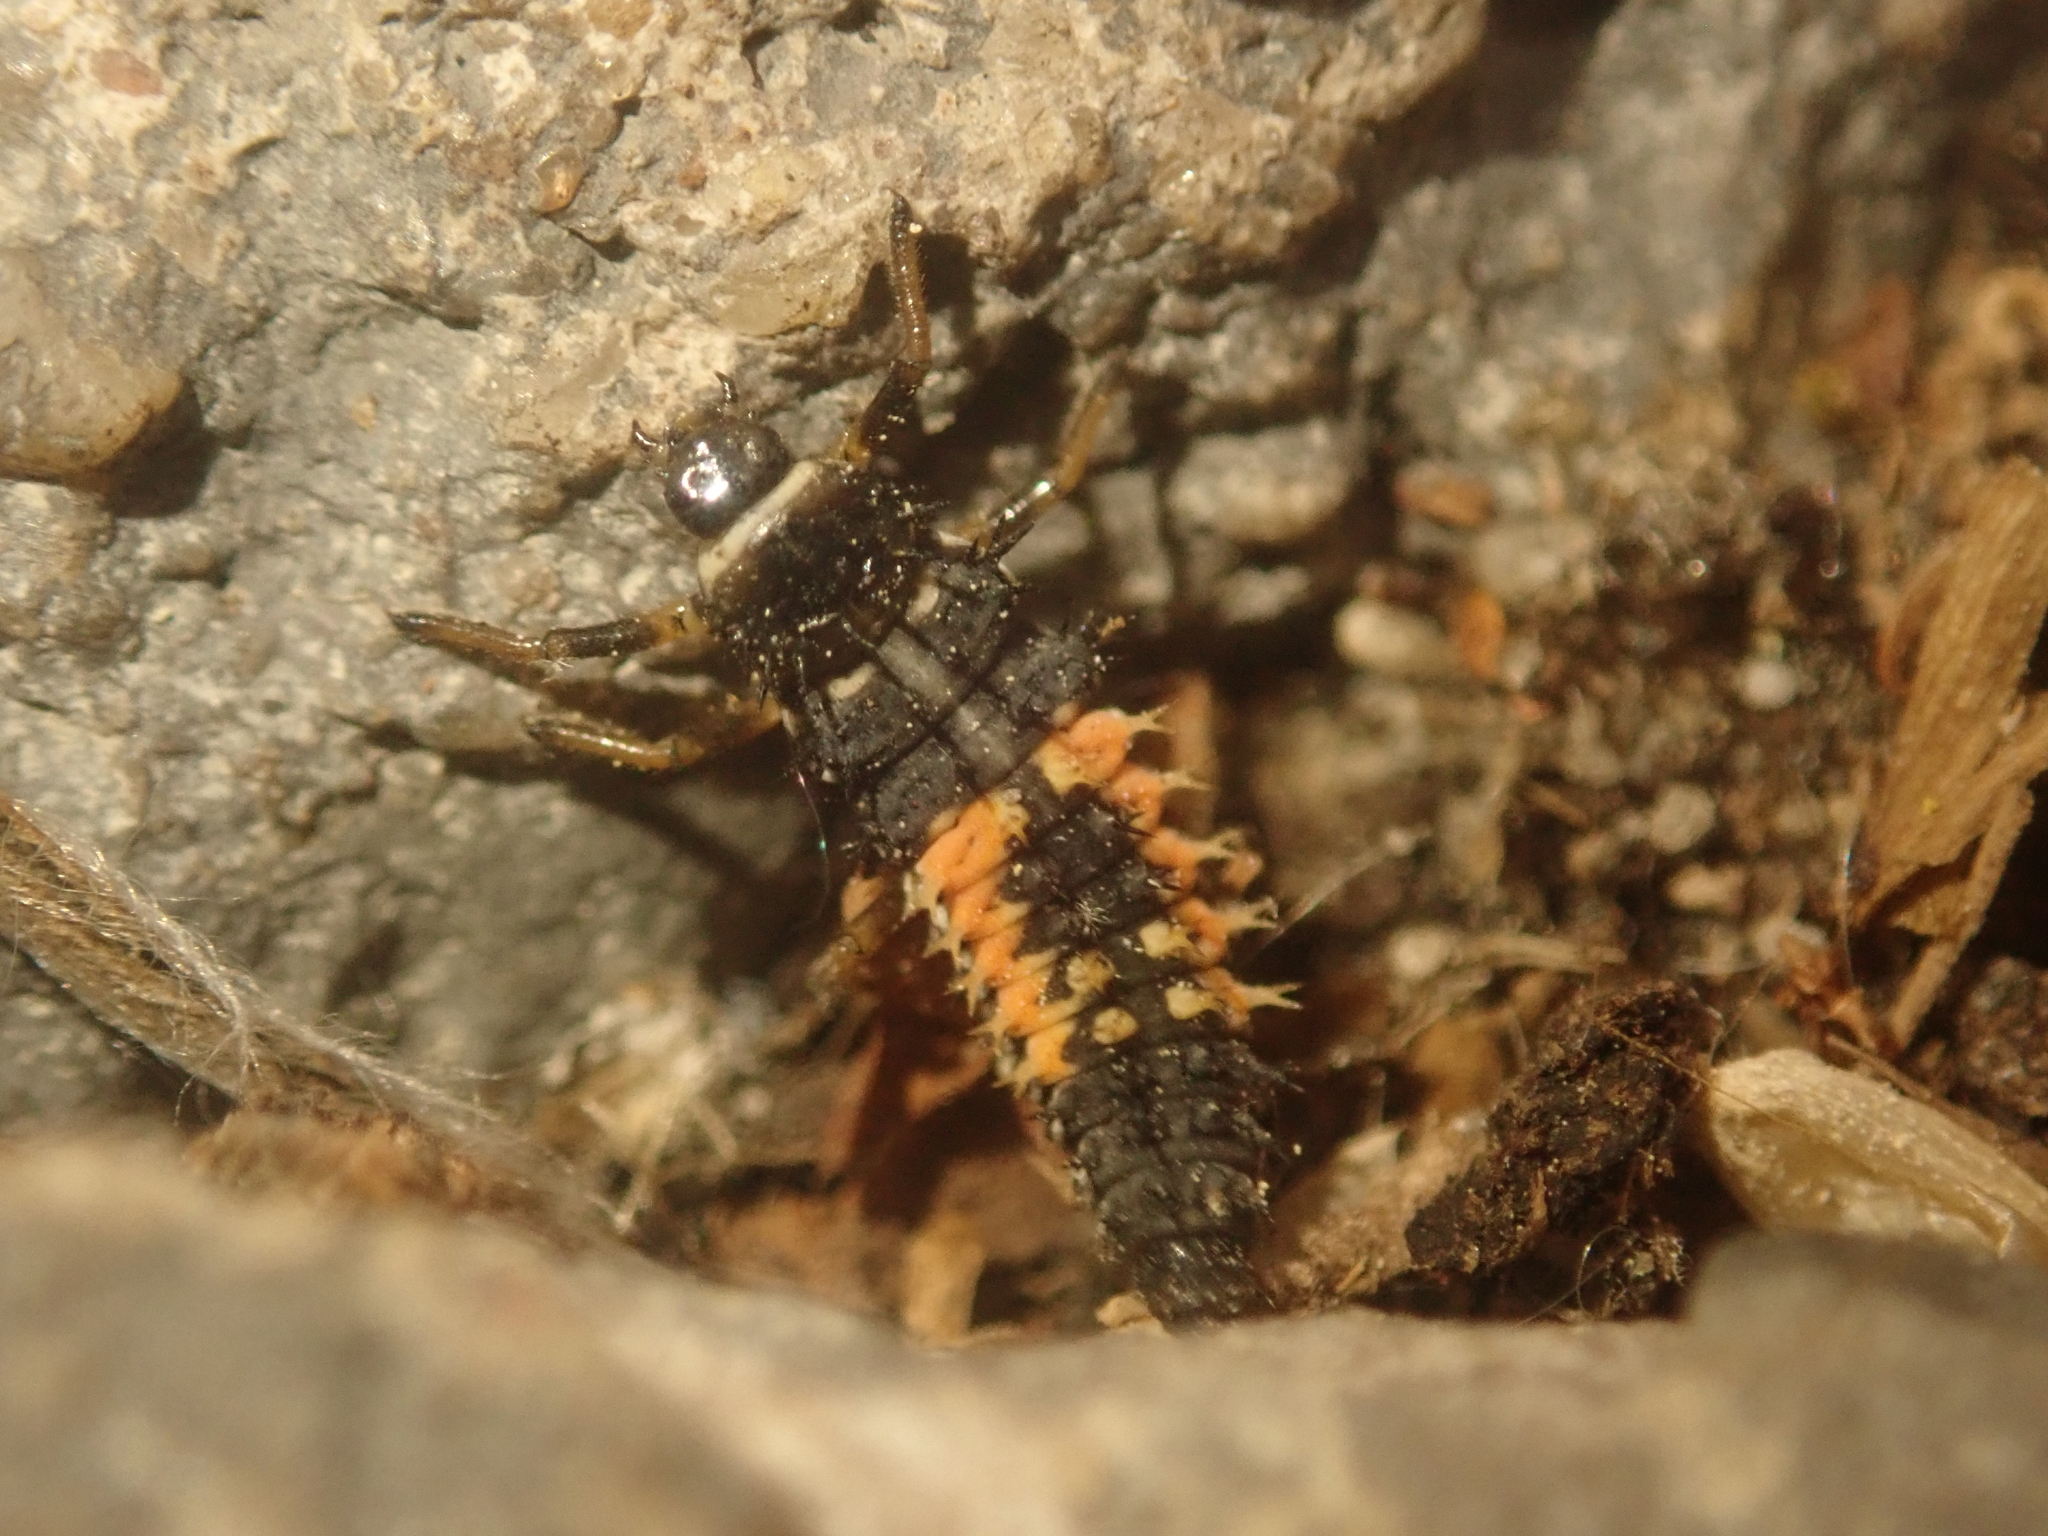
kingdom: Animalia
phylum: Arthropoda
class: Insecta
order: Coleoptera
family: Coccinellidae
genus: Harmonia
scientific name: Harmonia axyridis
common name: Harlequin ladybird
